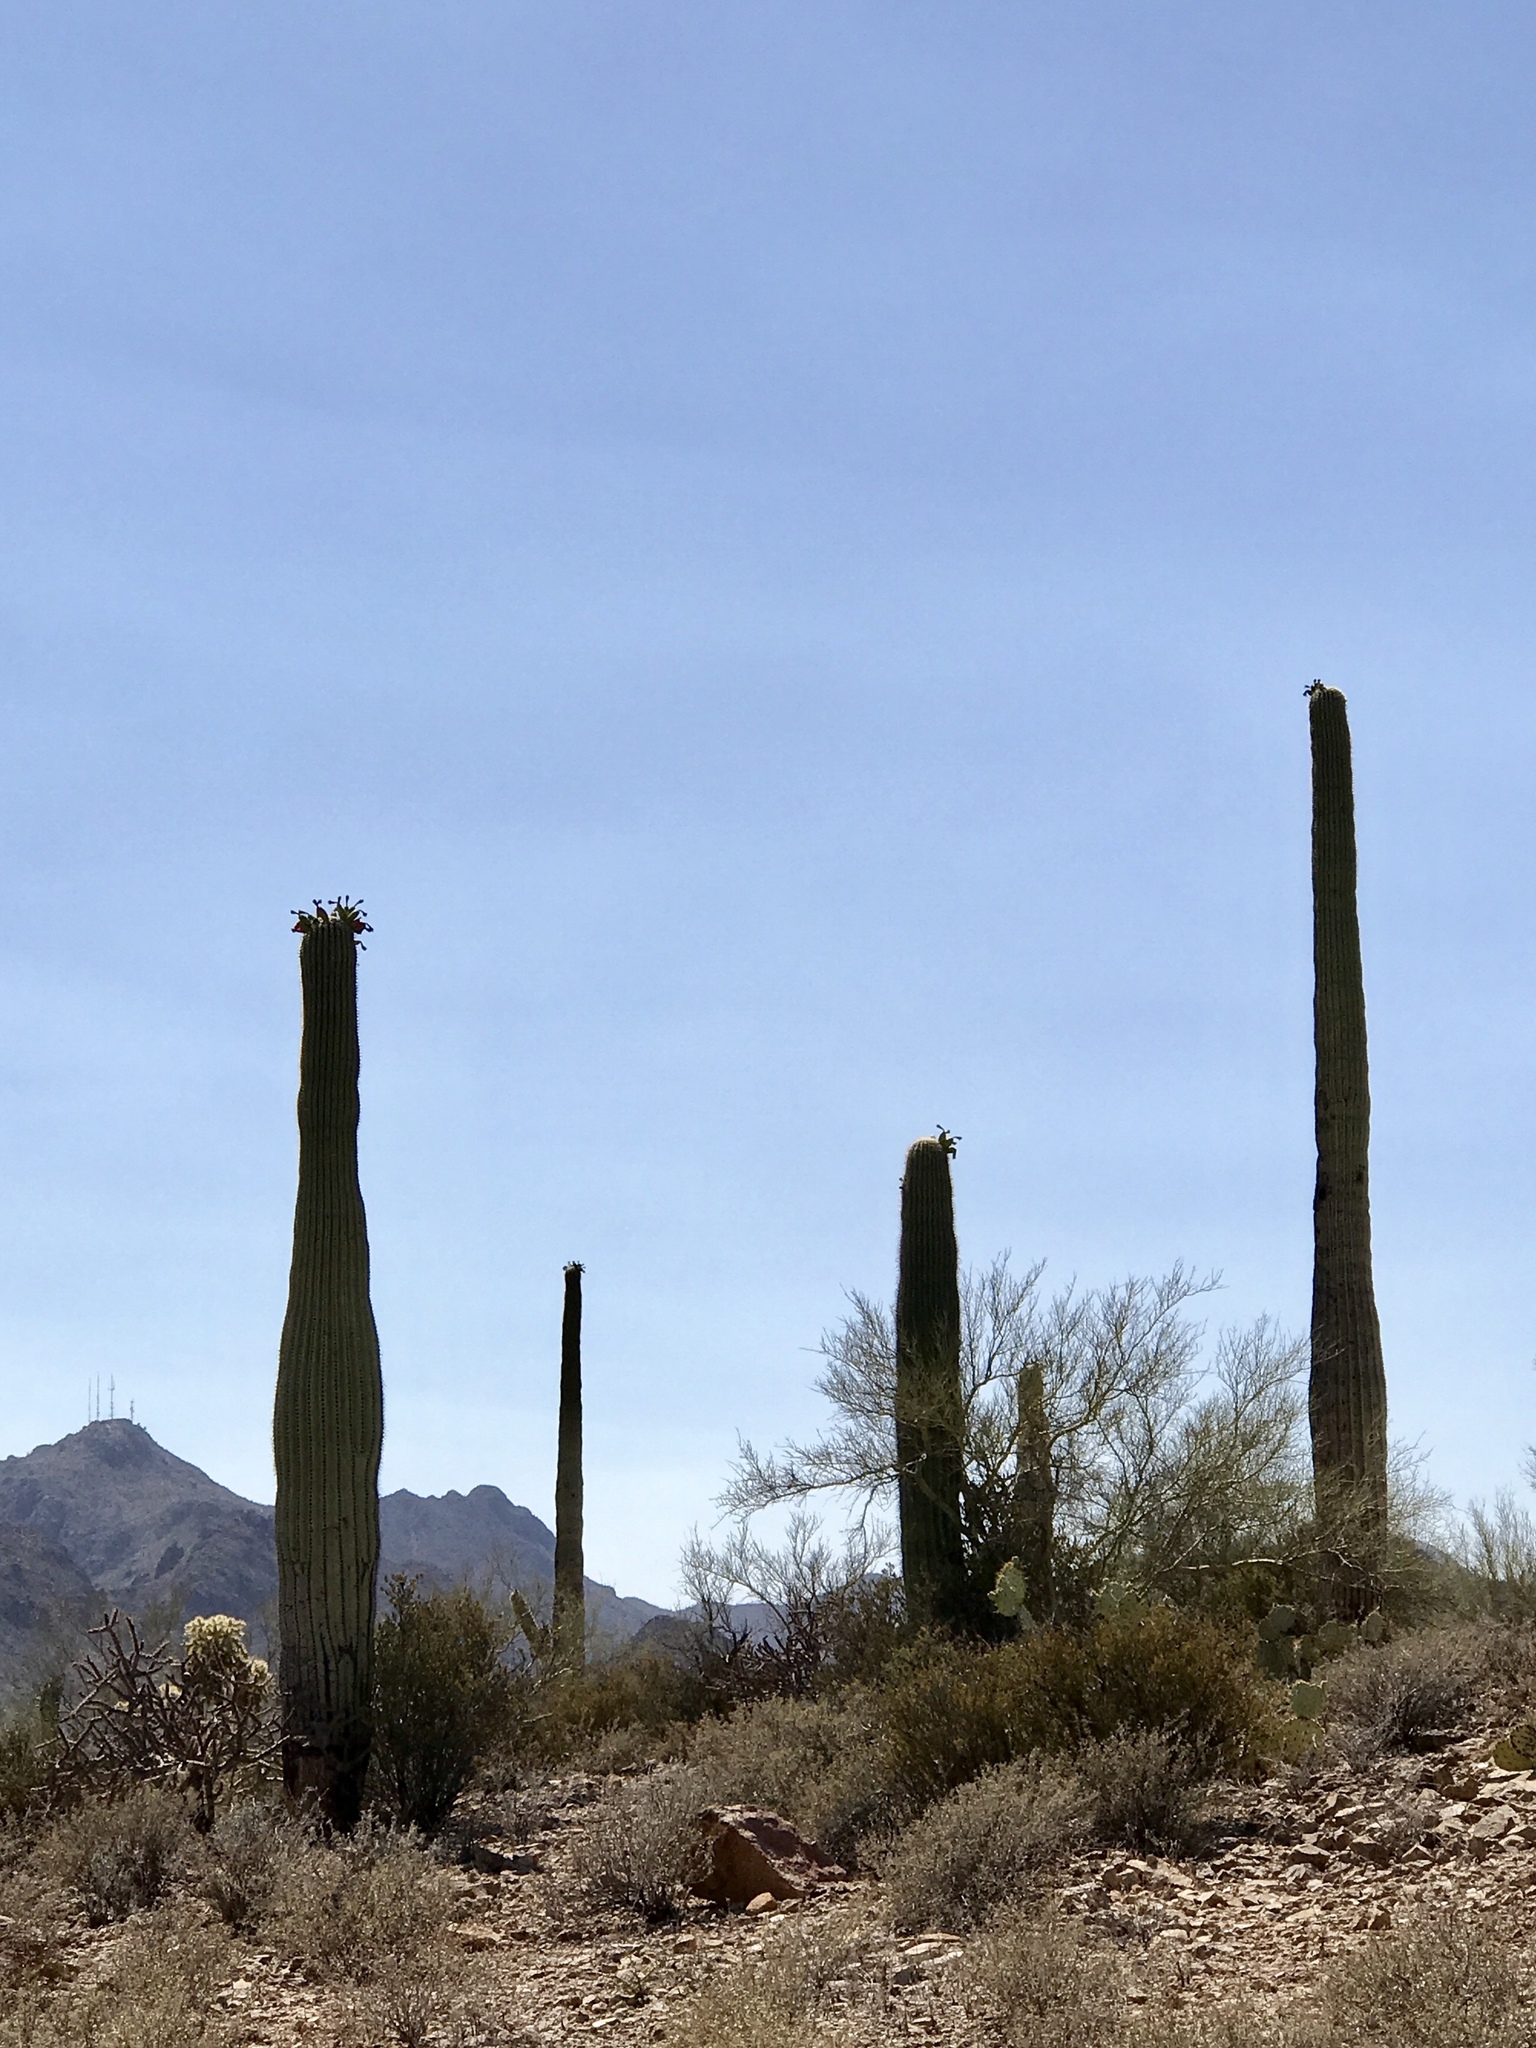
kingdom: Plantae
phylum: Tracheophyta
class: Magnoliopsida
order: Caryophyllales
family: Cactaceae
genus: Carnegiea
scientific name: Carnegiea gigantea
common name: Saguaro
